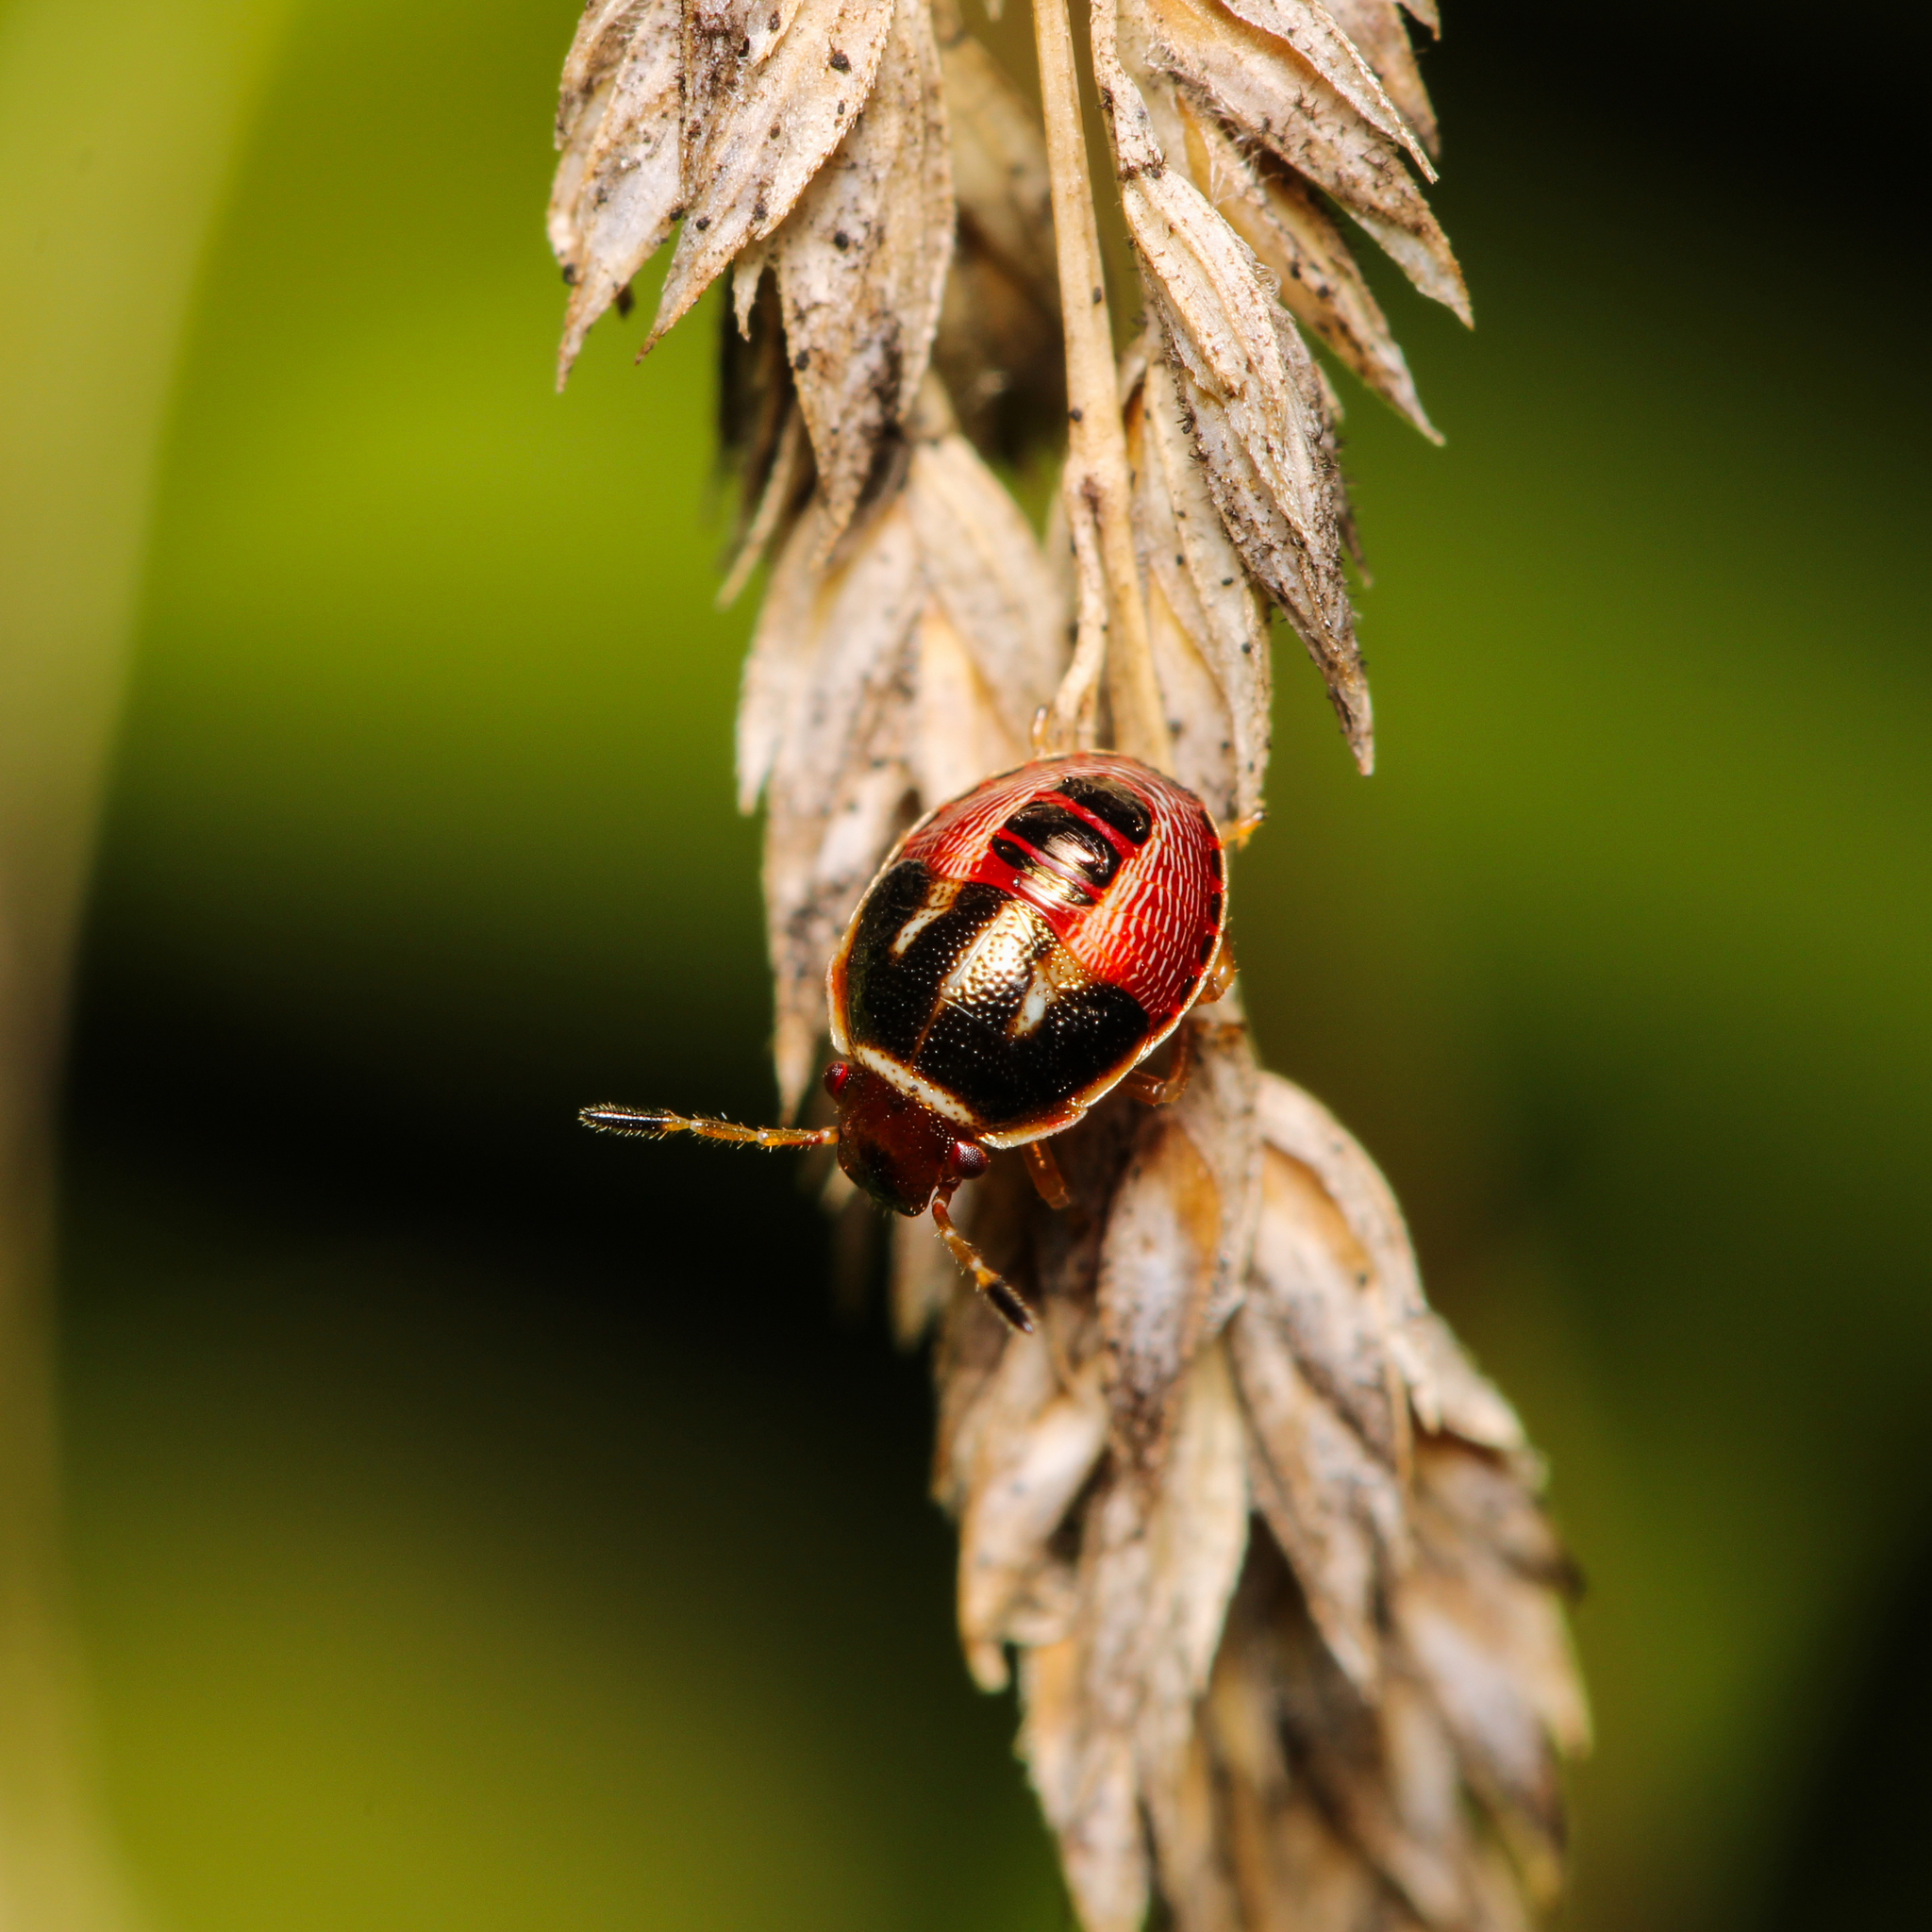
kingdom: Animalia
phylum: Arthropoda
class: Insecta
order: Hemiptera
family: Pentatomidae
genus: Mormidea
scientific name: Mormidea lugens
